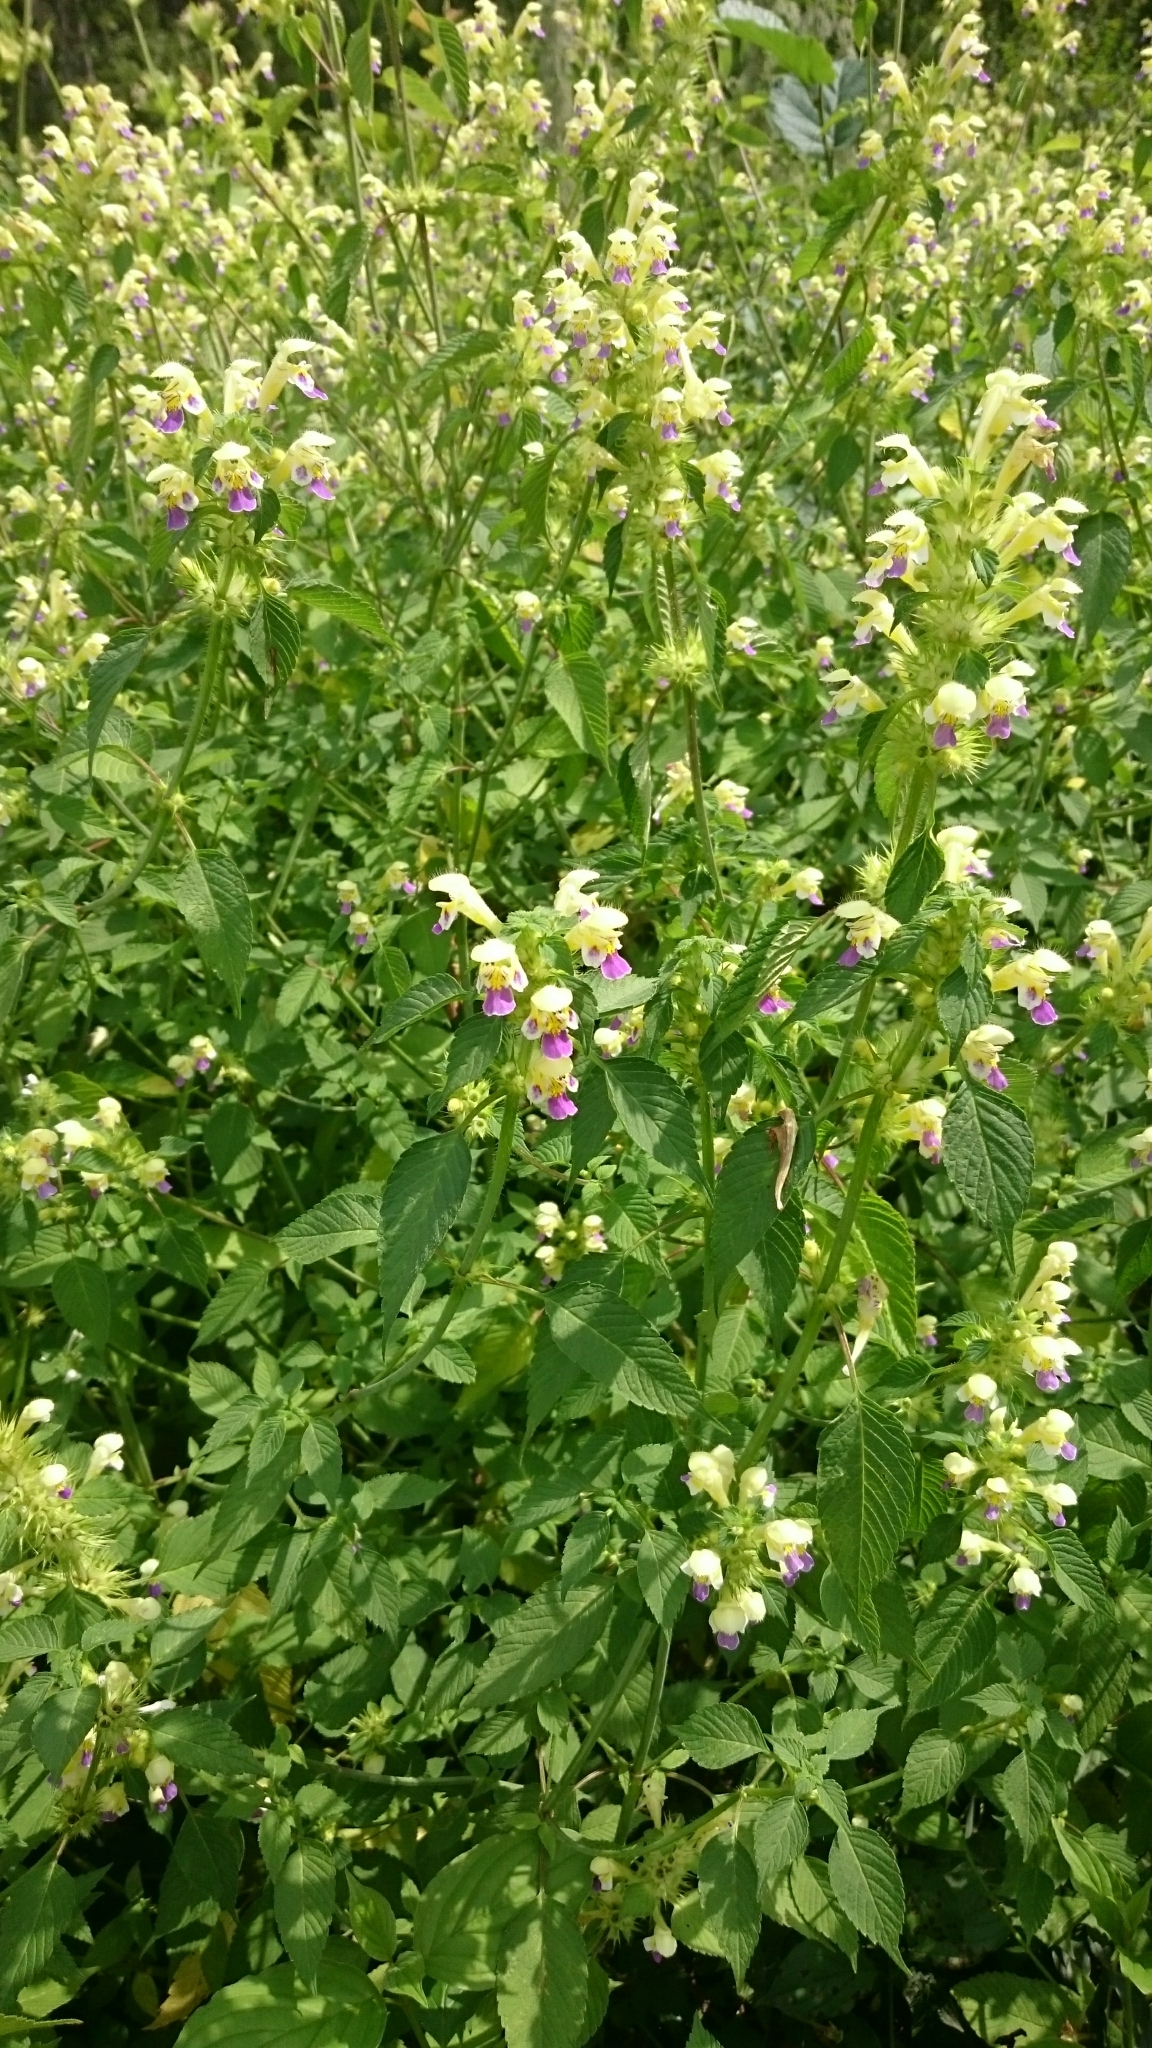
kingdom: Plantae
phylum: Tracheophyta
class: Magnoliopsida
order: Lamiales
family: Lamiaceae
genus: Galeopsis
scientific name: Galeopsis speciosa
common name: Large-flowered hemp-nettle
